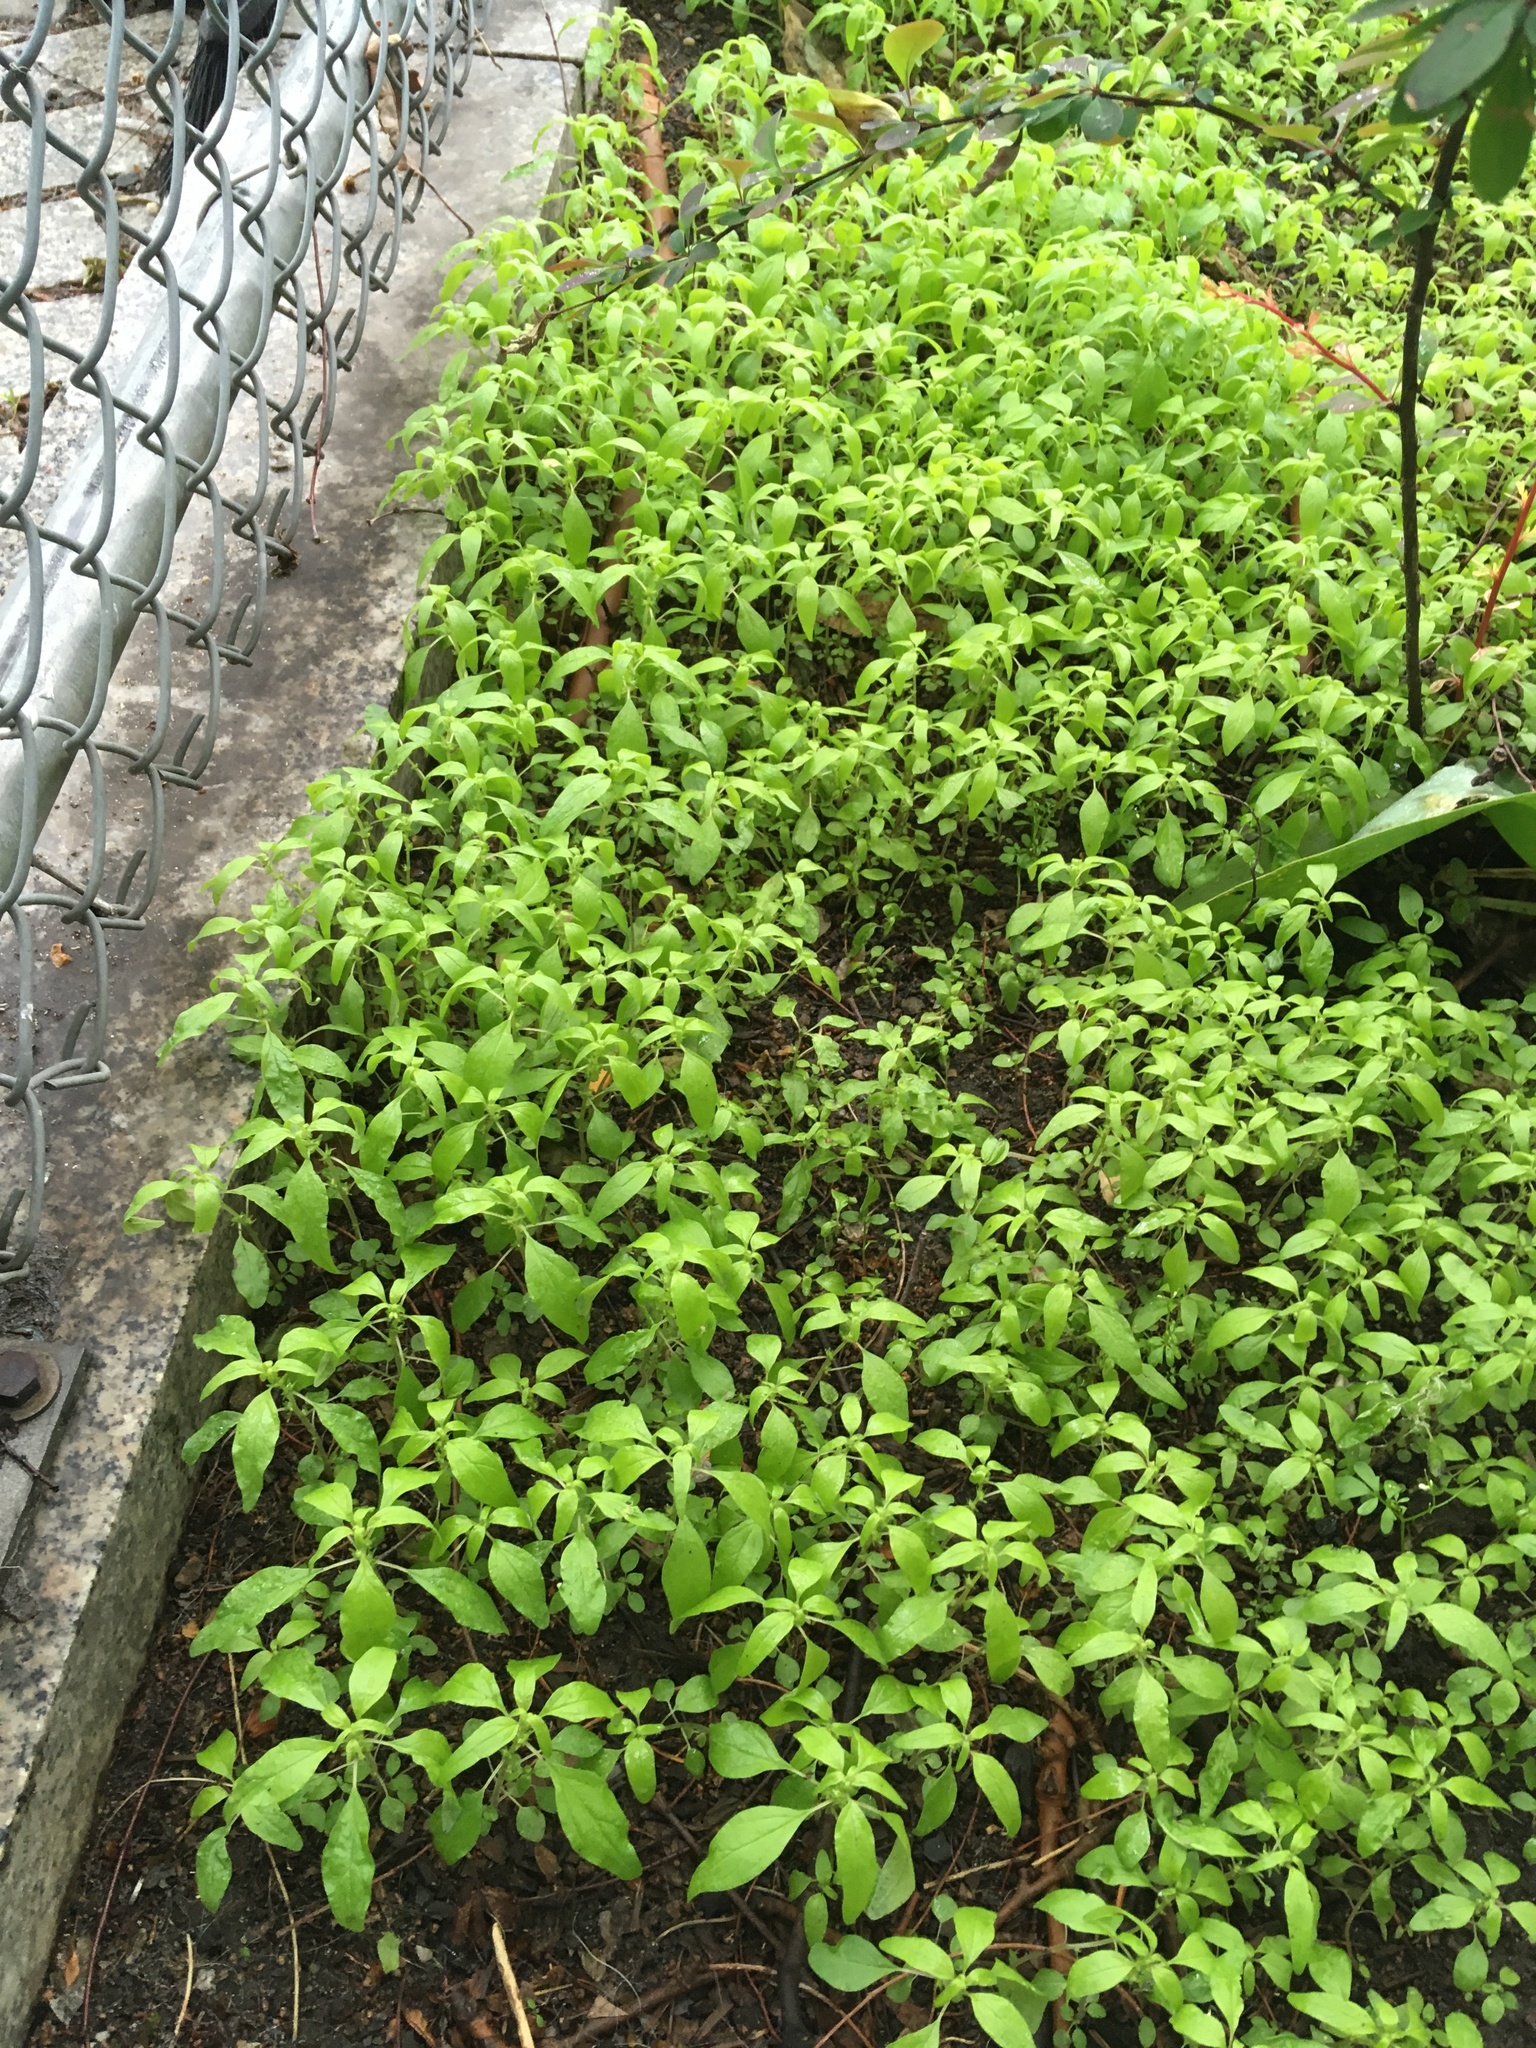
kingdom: Plantae
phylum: Tracheophyta
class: Magnoliopsida
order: Rosales
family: Urticaceae
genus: Parietaria
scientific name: Parietaria pensylvanica
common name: Pennsylvania pellitory
